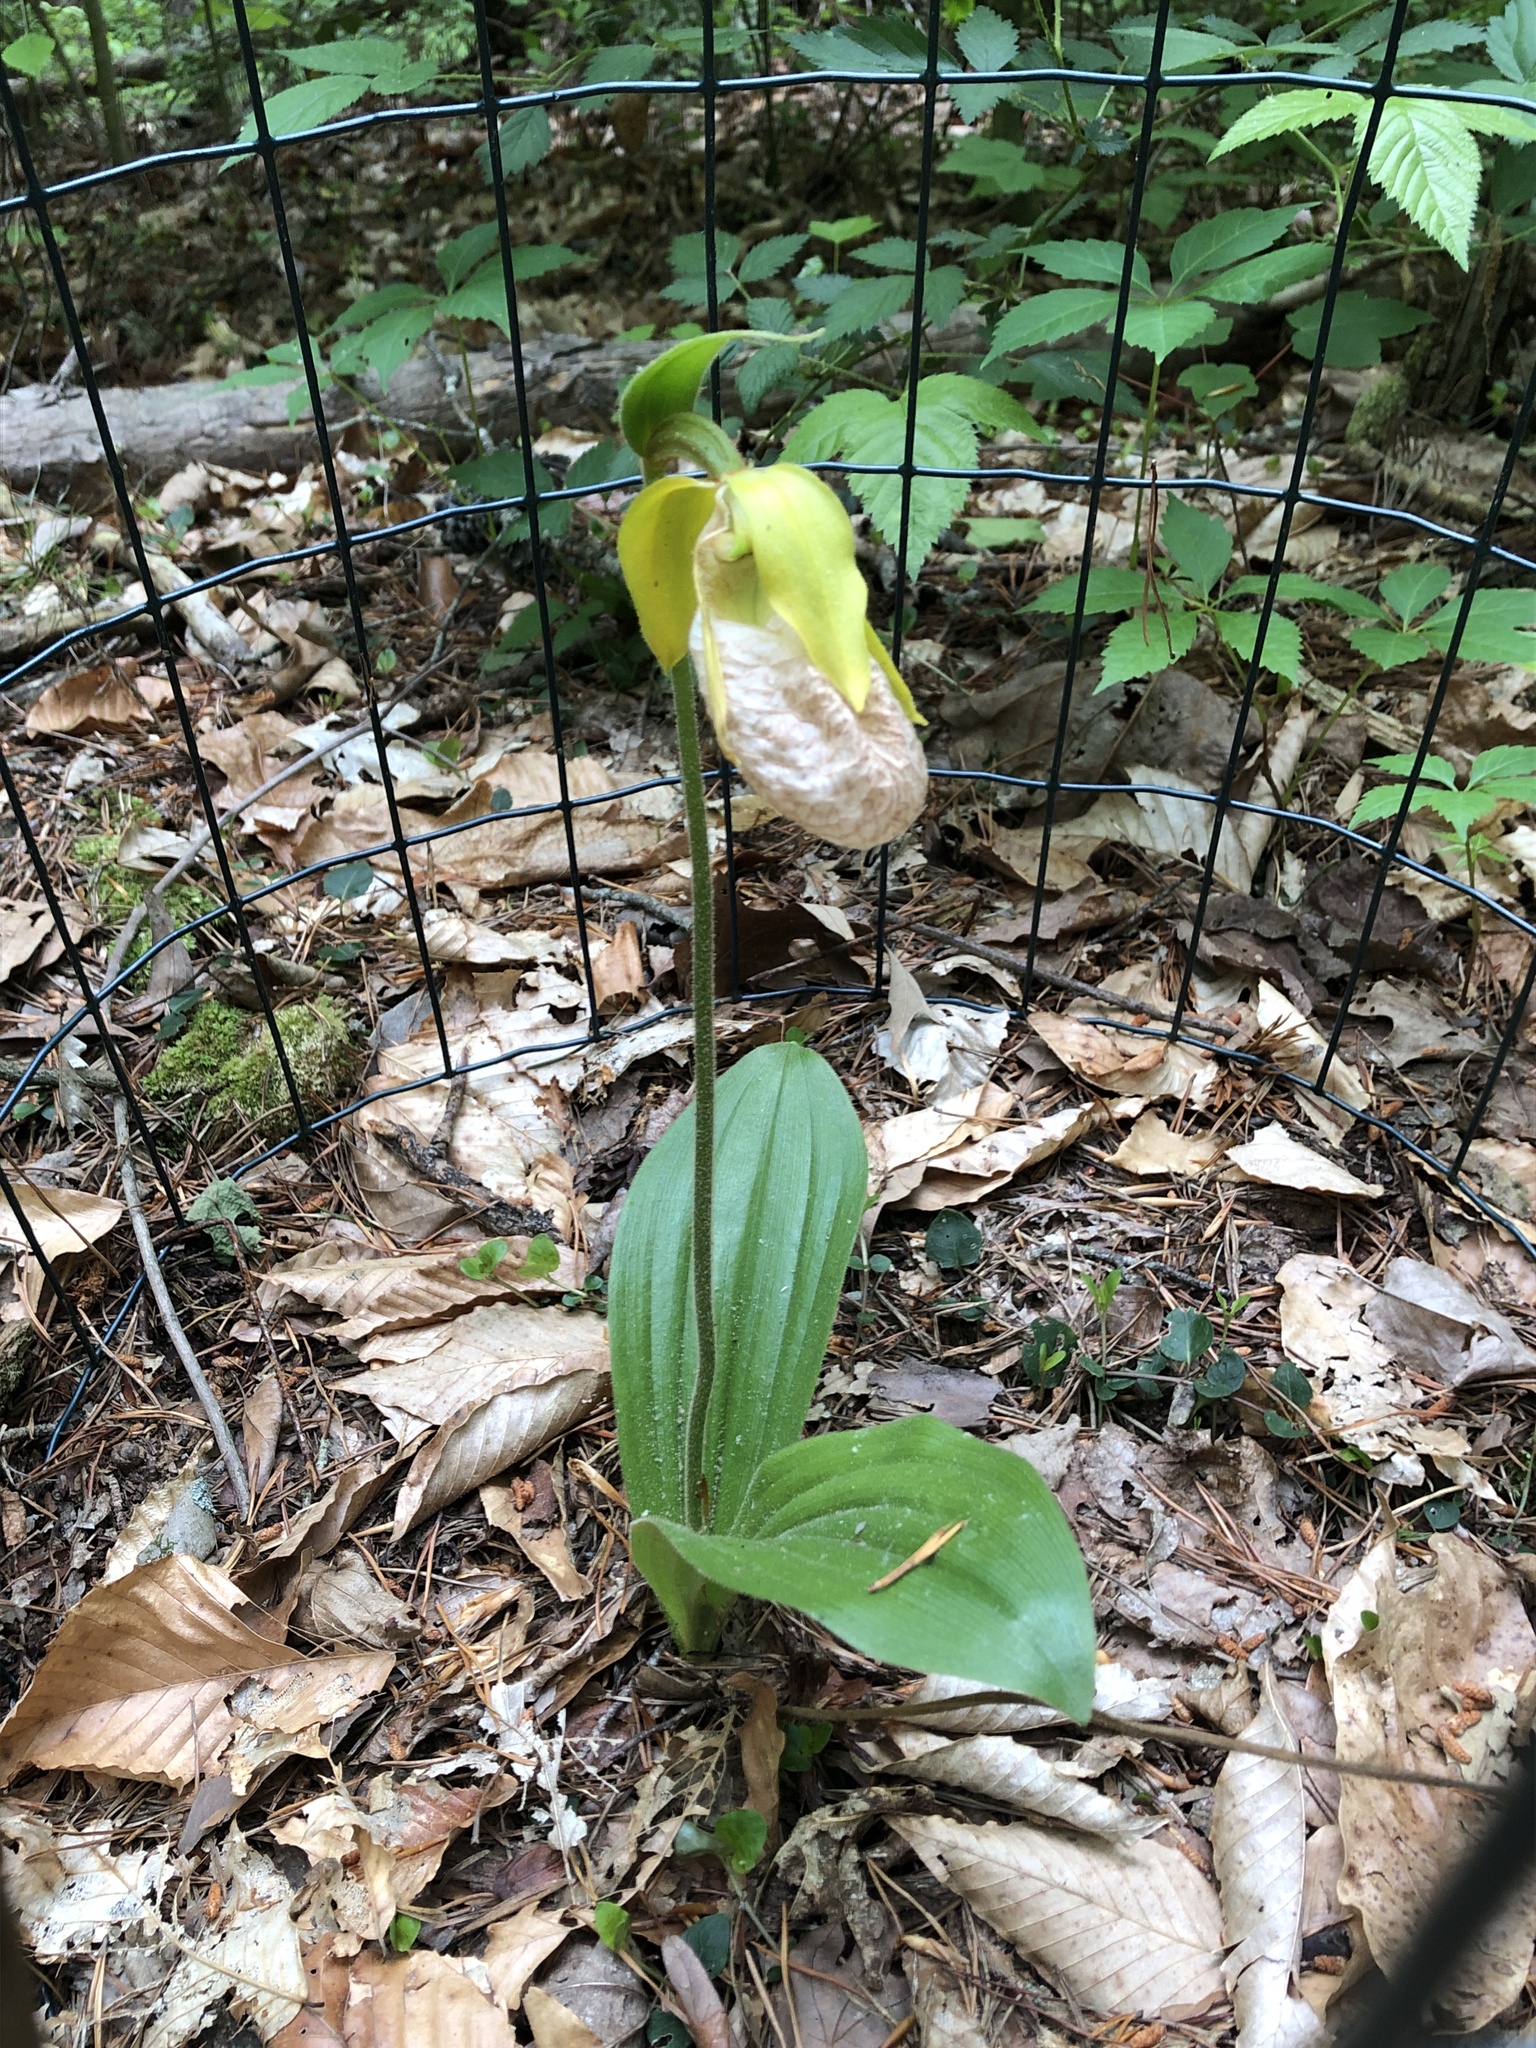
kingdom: Plantae
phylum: Tracheophyta
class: Liliopsida
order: Asparagales
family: Orchidaceae
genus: Cypripedium
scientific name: Cypripedium acaule
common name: Pink lady's-slipper
